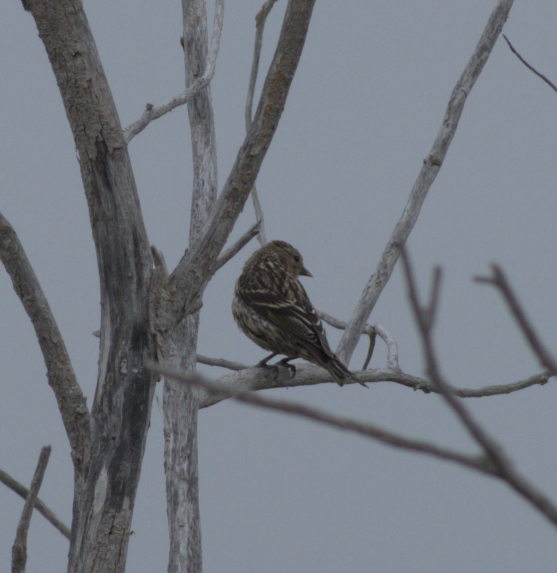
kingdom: Animalia
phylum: Chordata
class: Aves
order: Passeriformes
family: Fringillidae
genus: Spinus
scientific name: Spinus pinus
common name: Pine siskin
